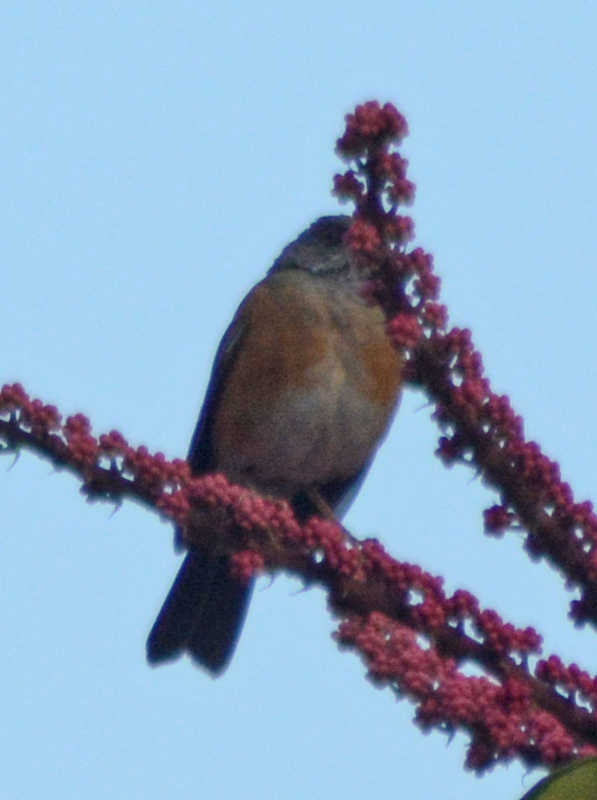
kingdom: Animalia
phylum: Chordata
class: Aves
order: Passeriformes
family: Turdidae
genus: Turdus
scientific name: Turdus rufopalliatus
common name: Rufous-backed robin
